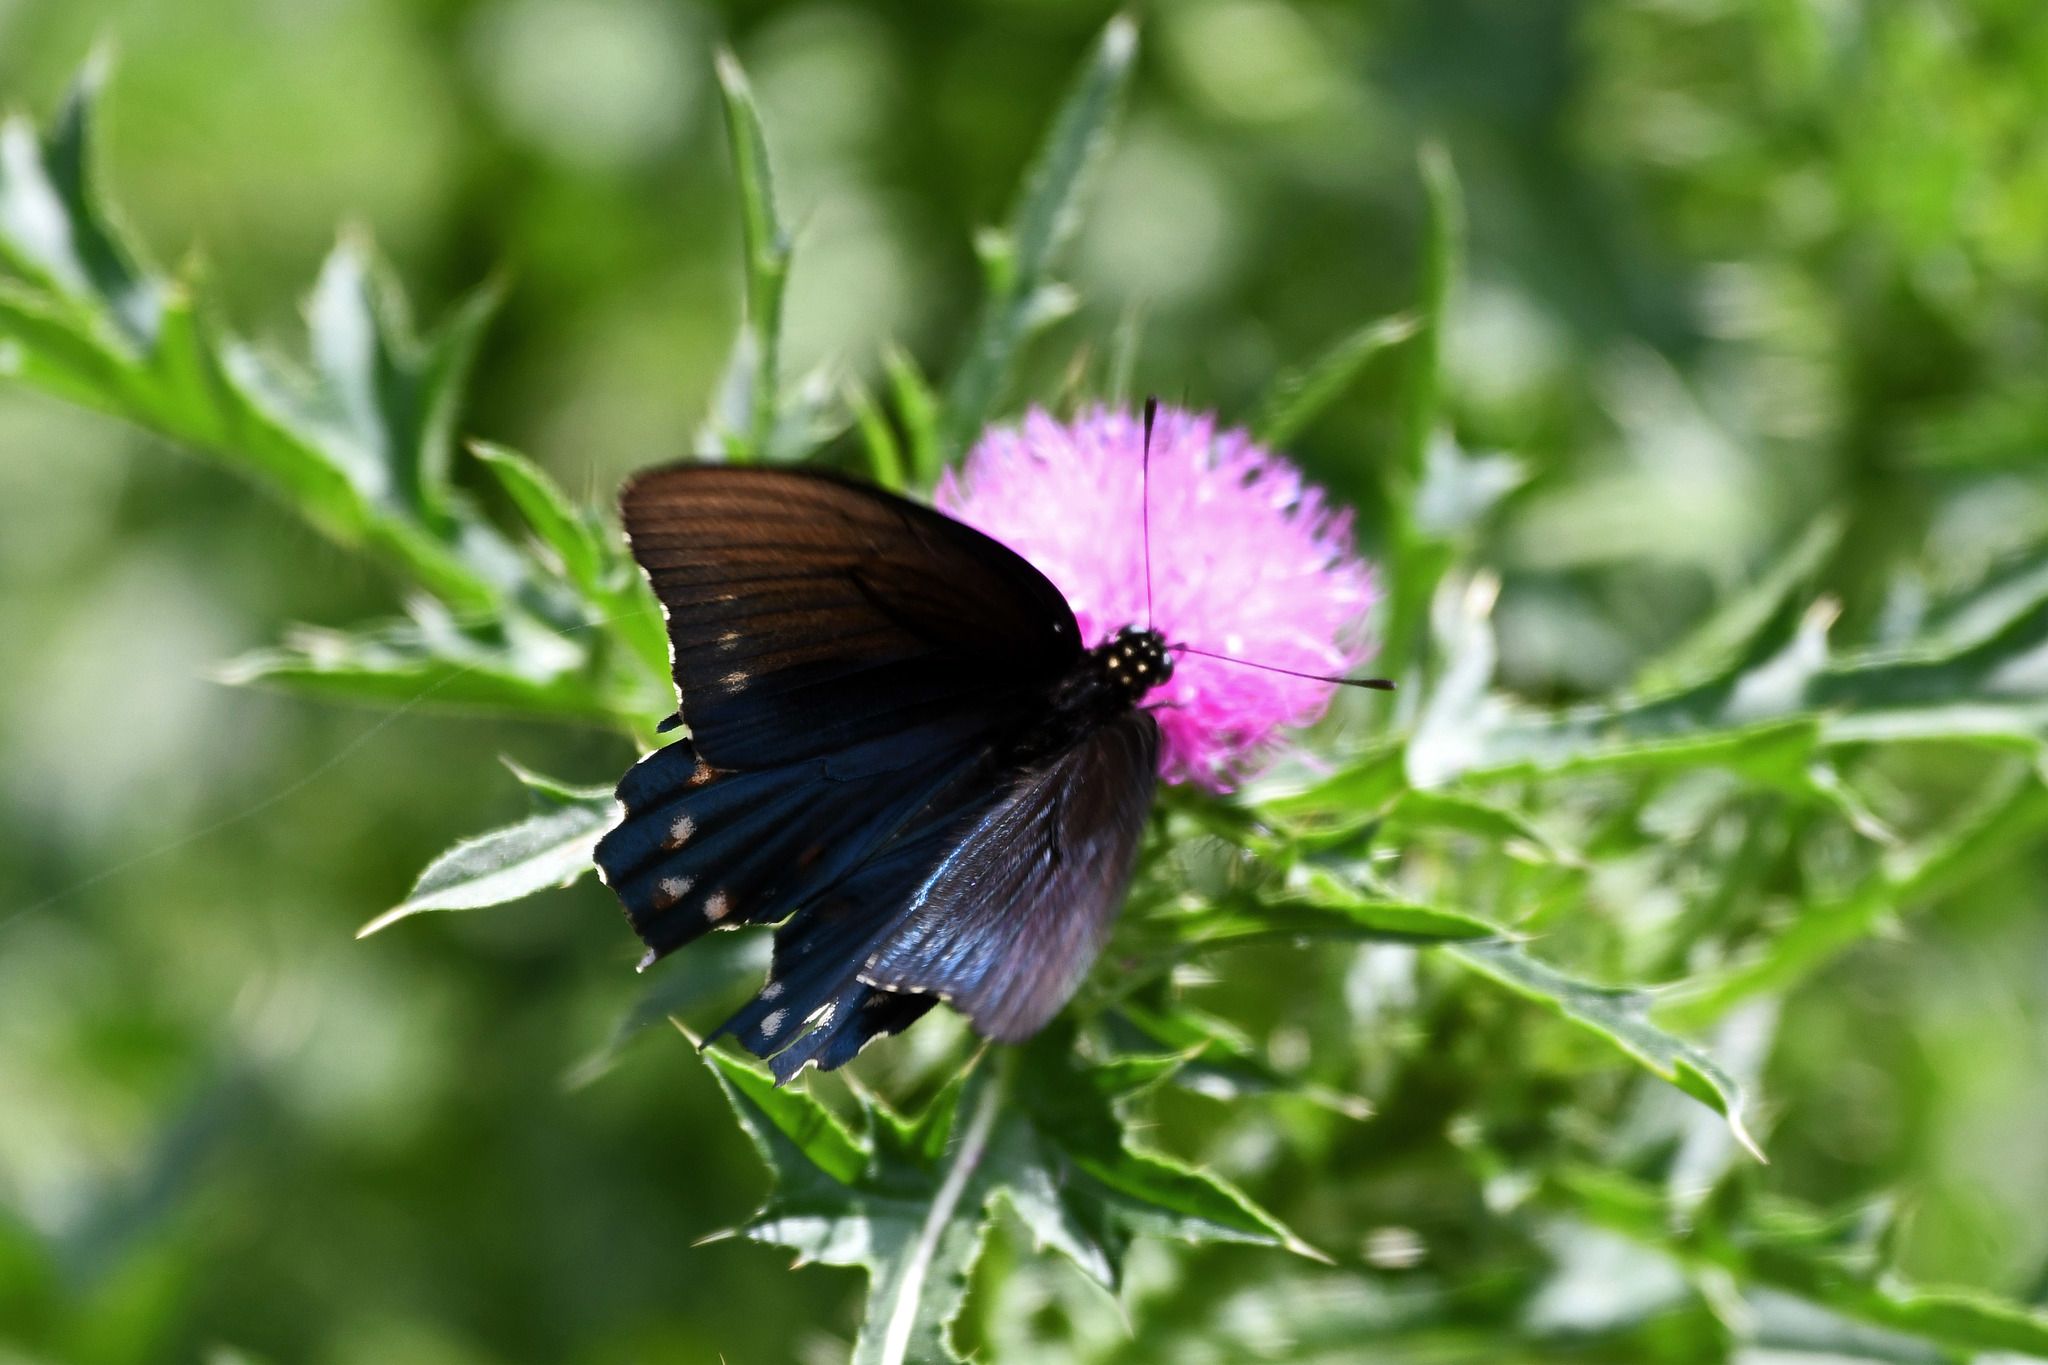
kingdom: Animalia
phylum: Arthropoda
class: Insecta
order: Lepidoptera
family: Papilionidae
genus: Battus
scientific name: Battus philenor
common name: Pipevine swallowtail
